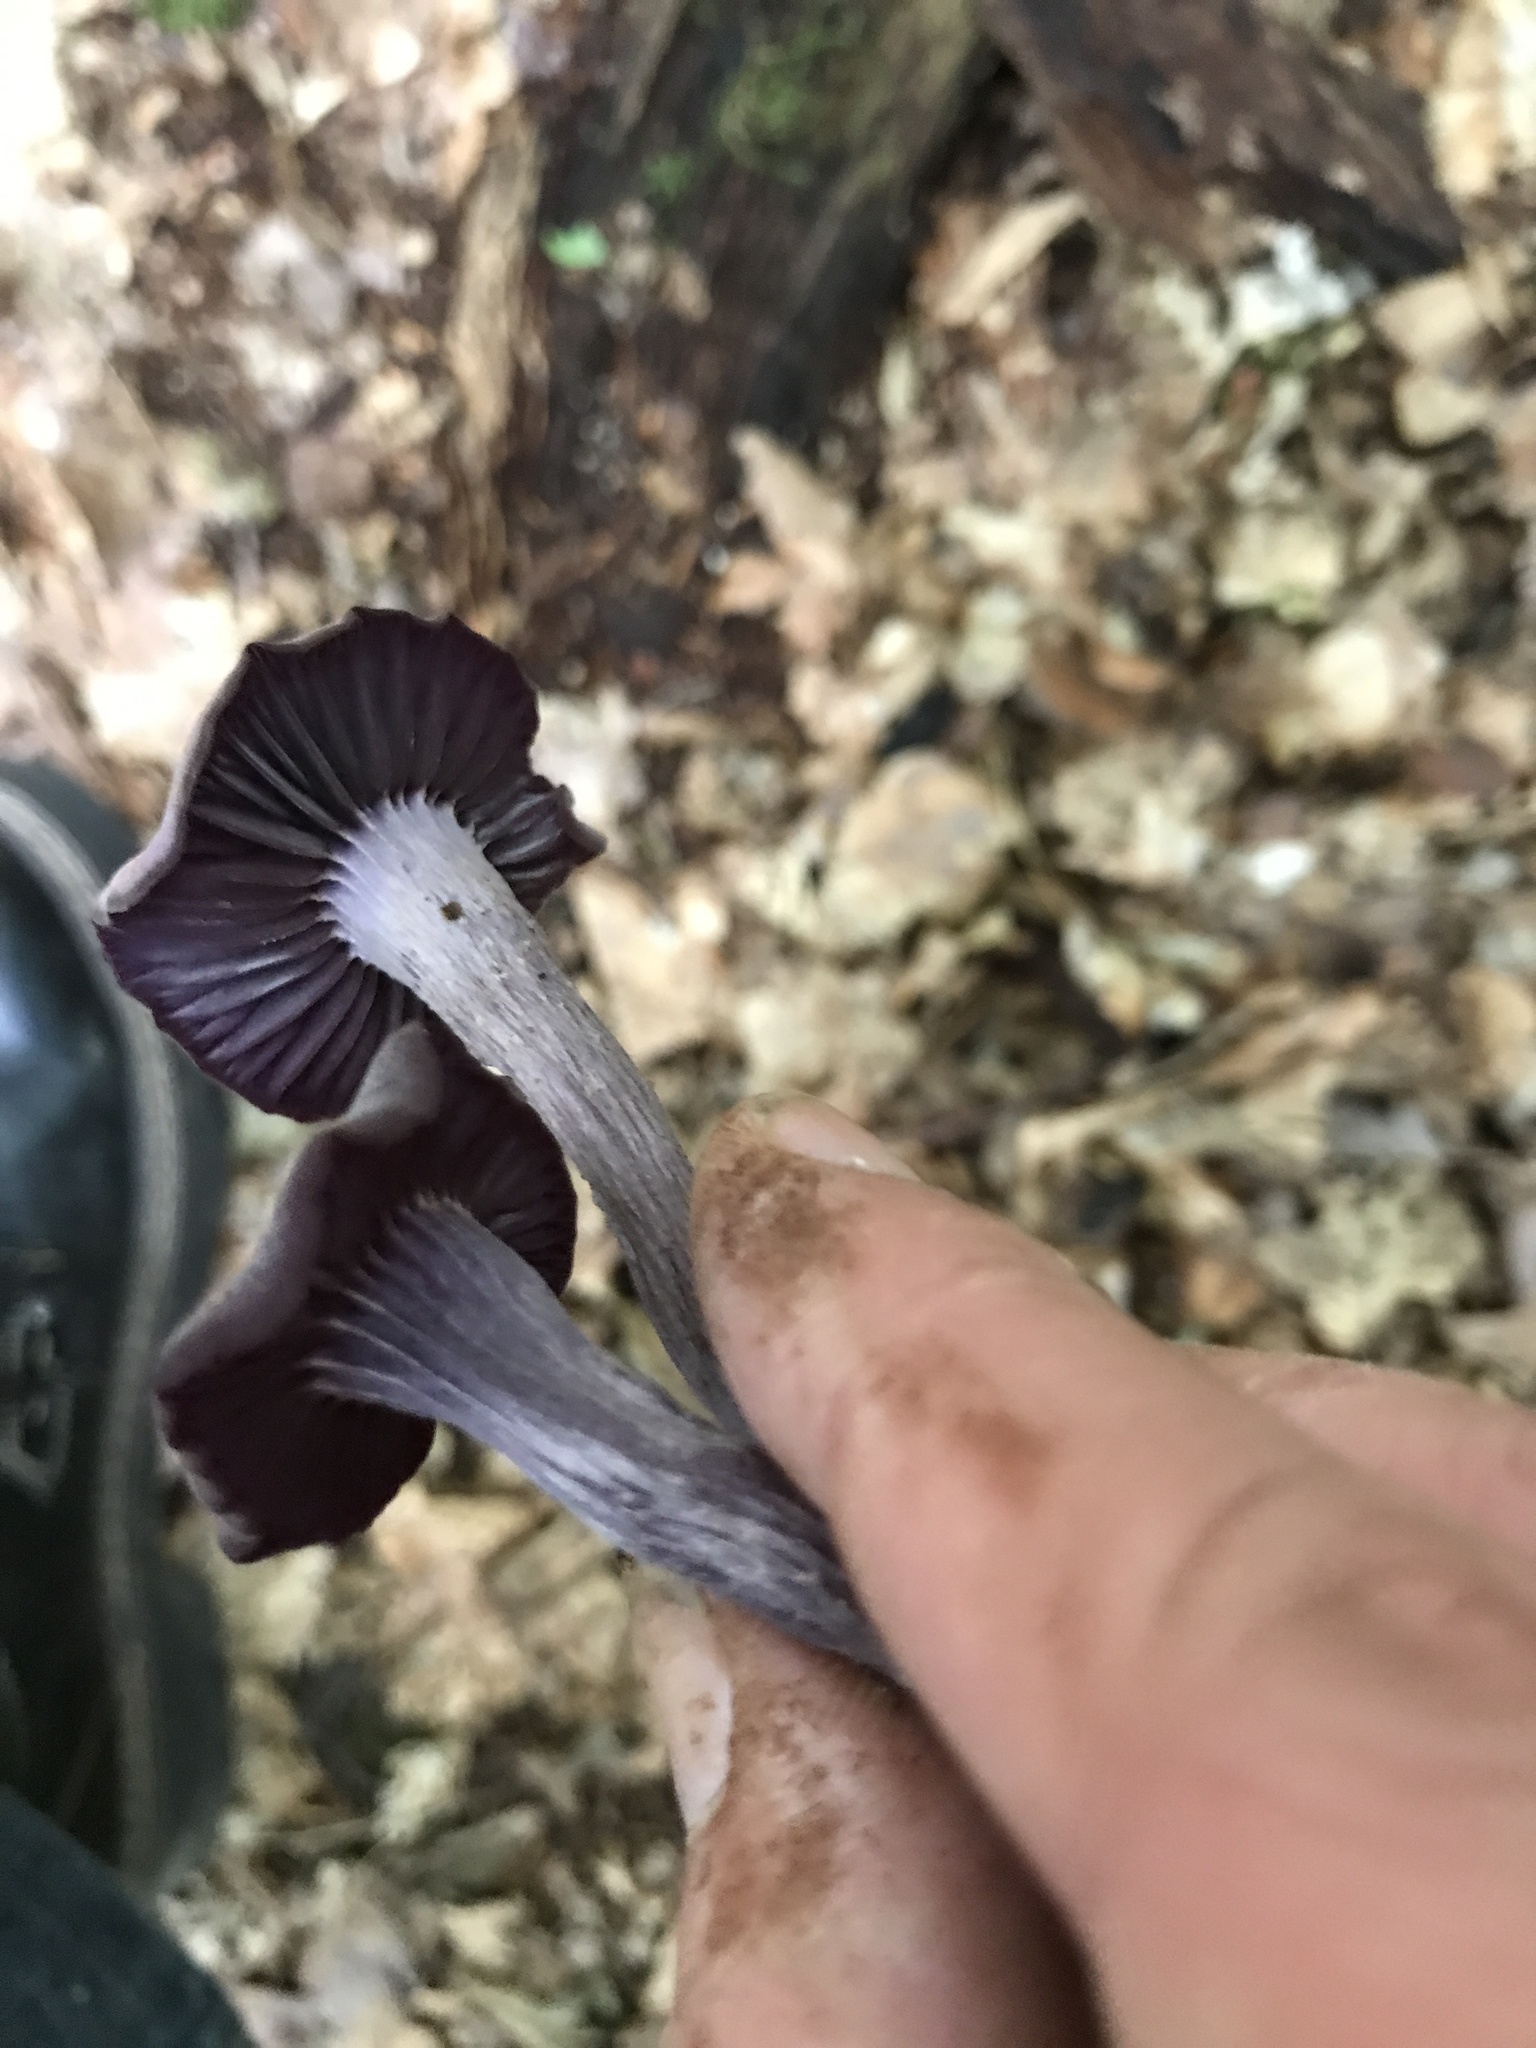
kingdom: Fungi
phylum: Basidiomycota
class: Agaricomycetes
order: Agaricales
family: Hydnangiaceae
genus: Laccaria
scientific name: Laccaria amethystina
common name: Amethyst deceiver
